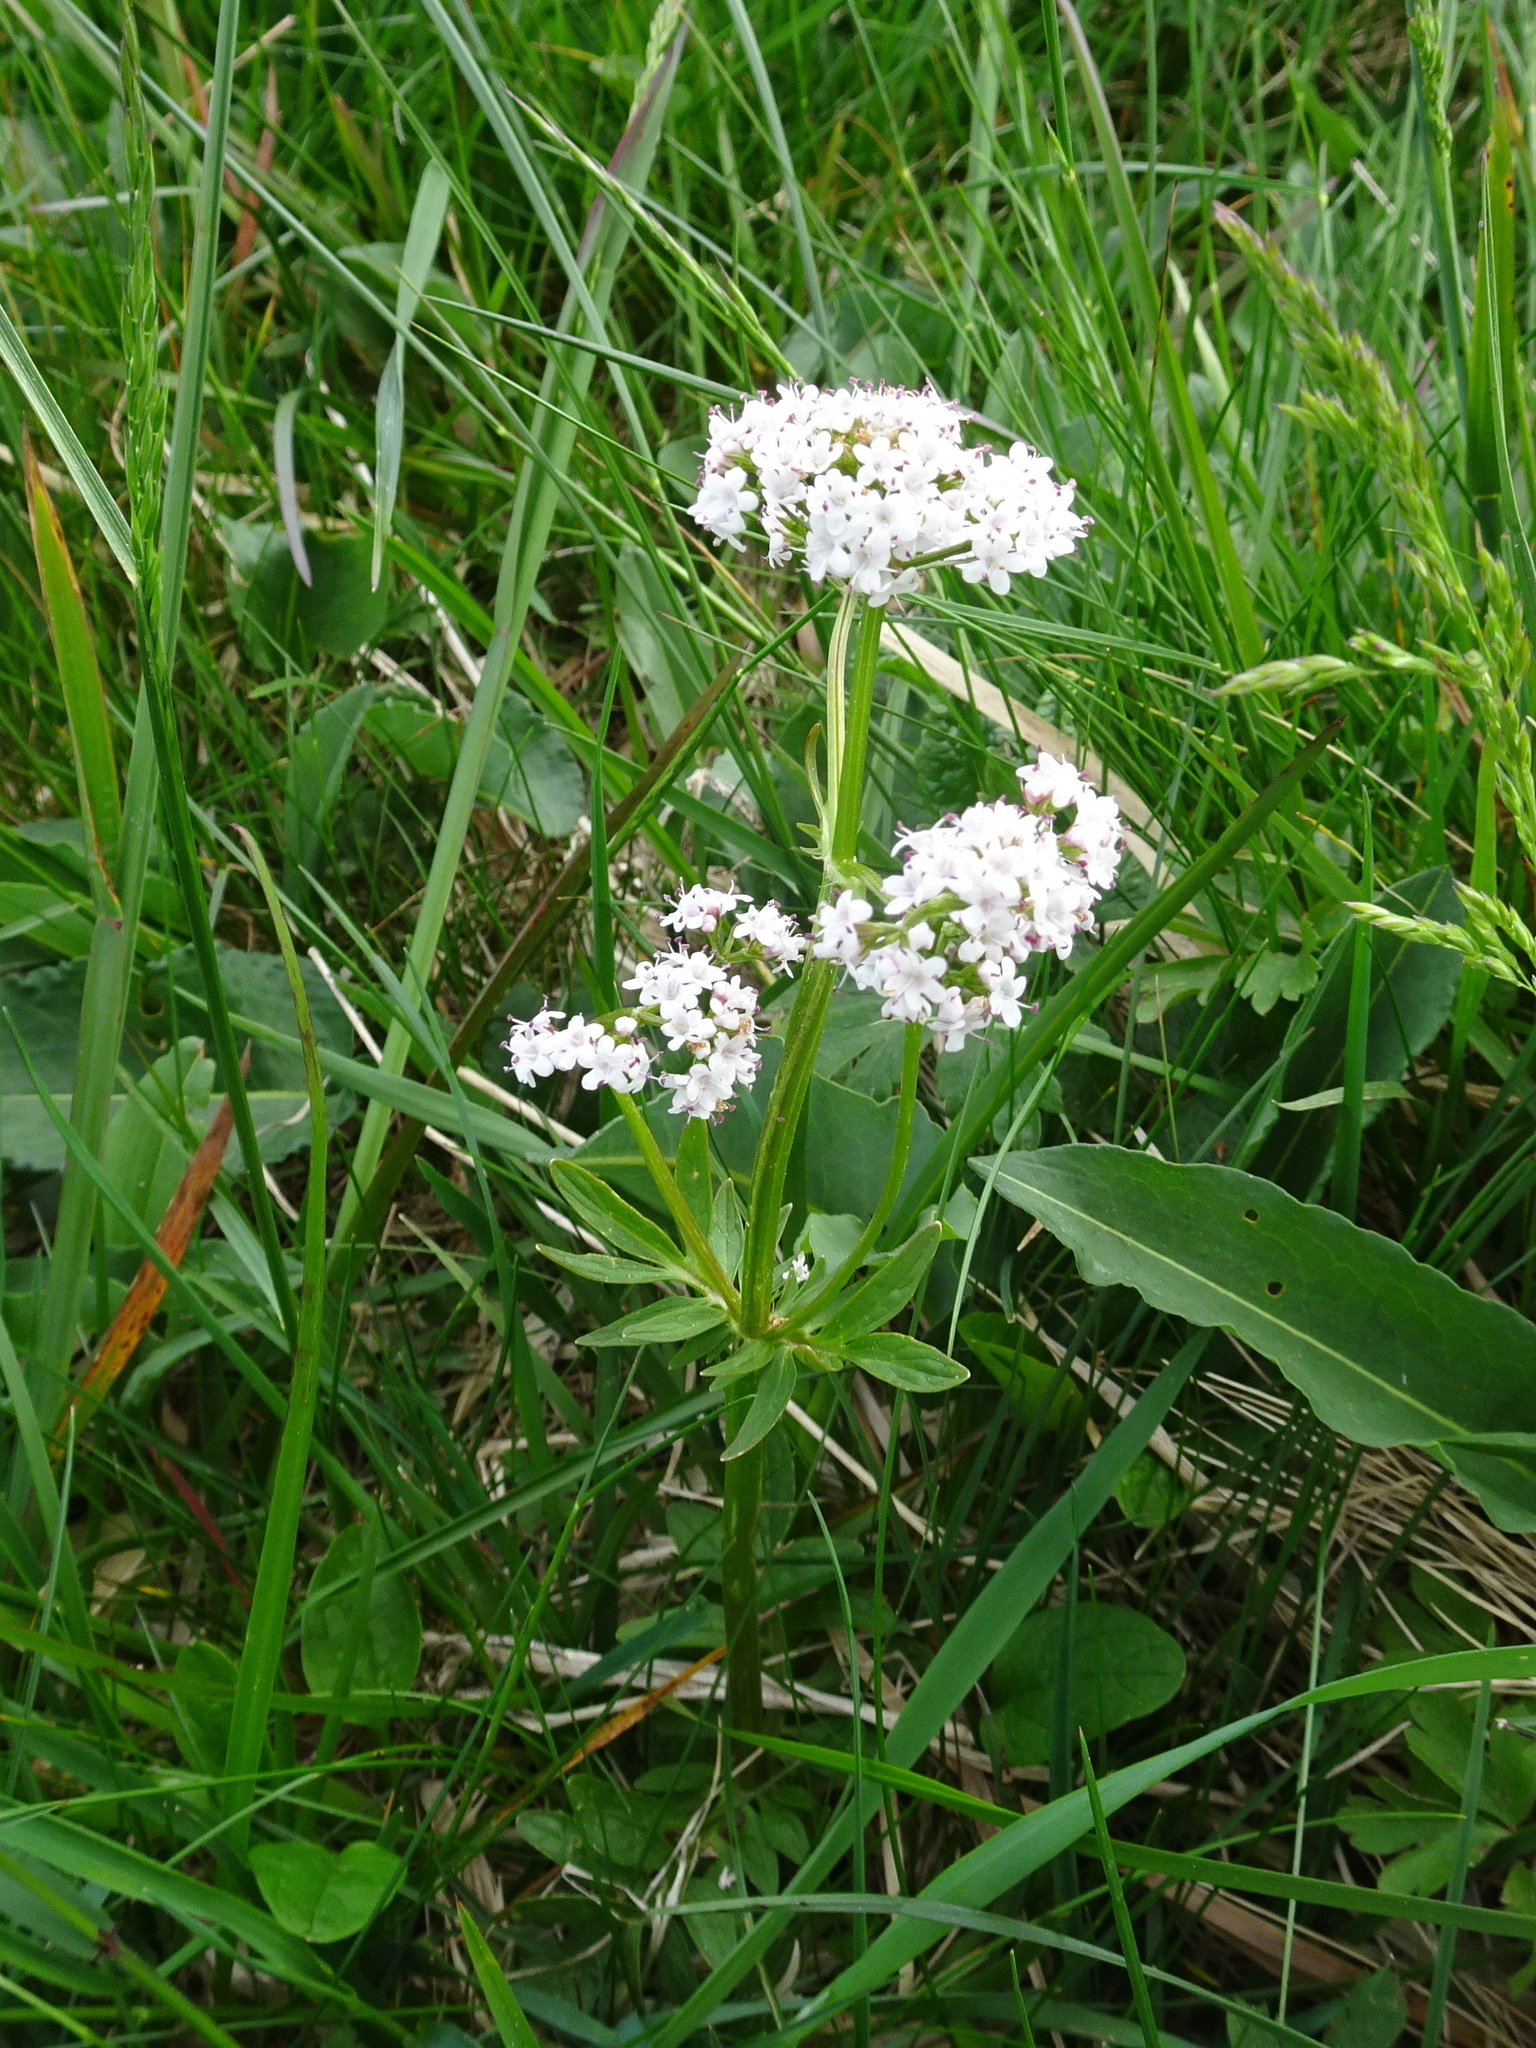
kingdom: Plantae
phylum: Tracheophyta
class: Magnoliopsida
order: Dipsacales
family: Caprifoliaceae
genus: Valeriana
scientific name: Valeriana dioica
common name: Marsh valerian
